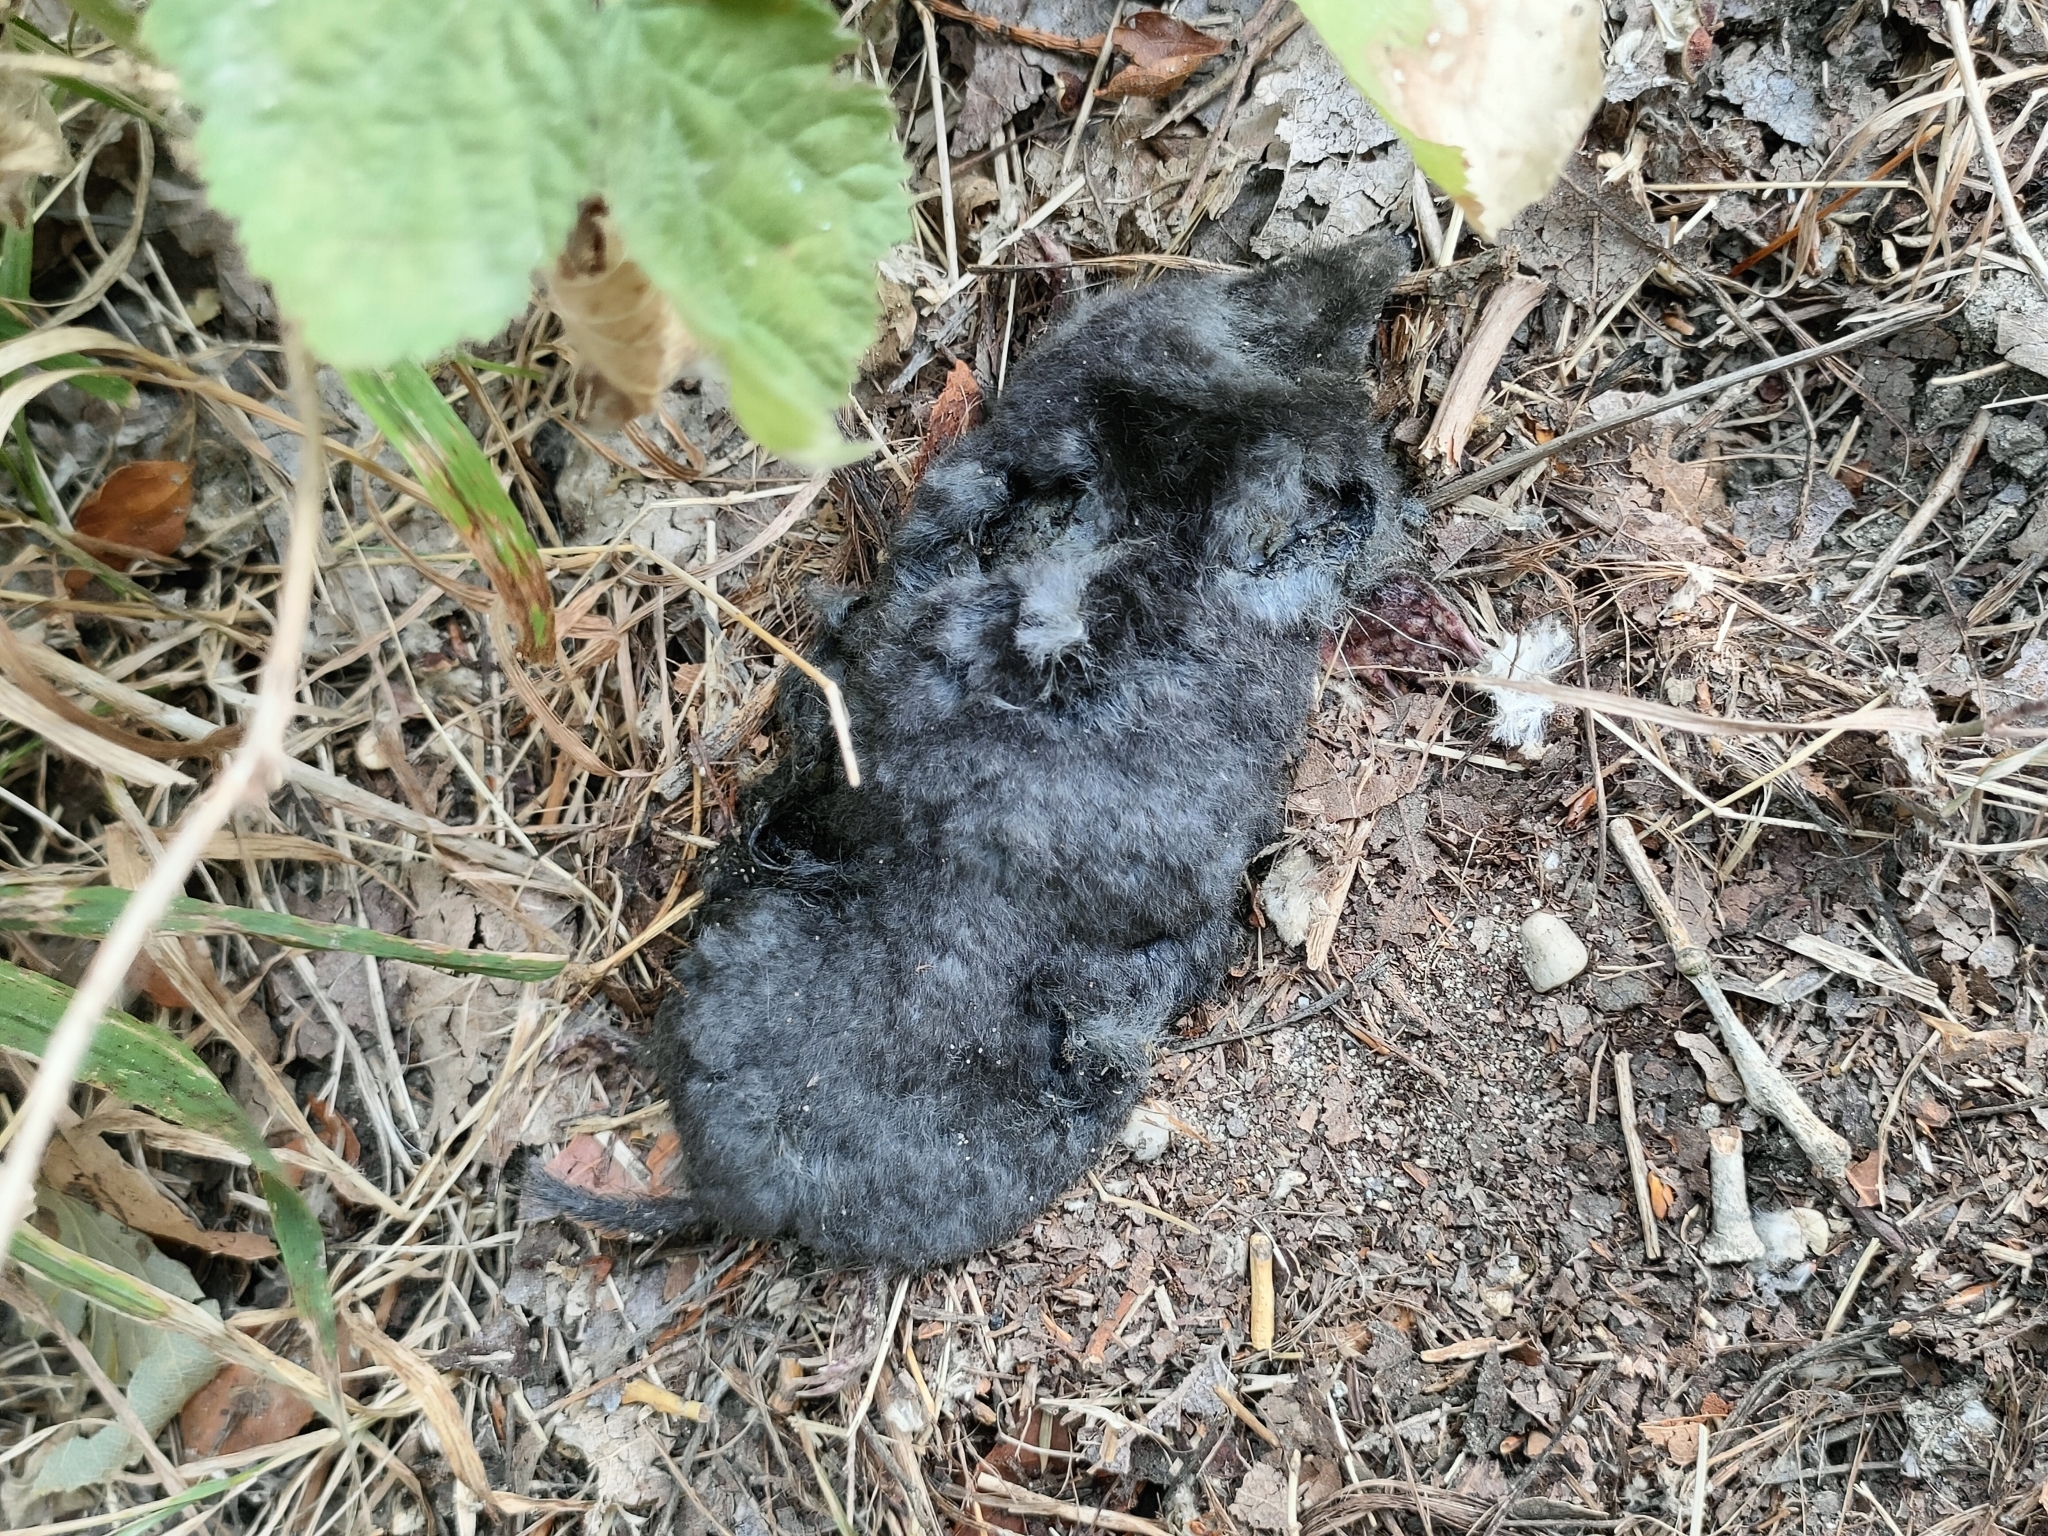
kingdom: Animalia
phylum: Chordata
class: Mammalia
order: Soricomorpha
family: Talpidae
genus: Talpa
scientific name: Talpa
